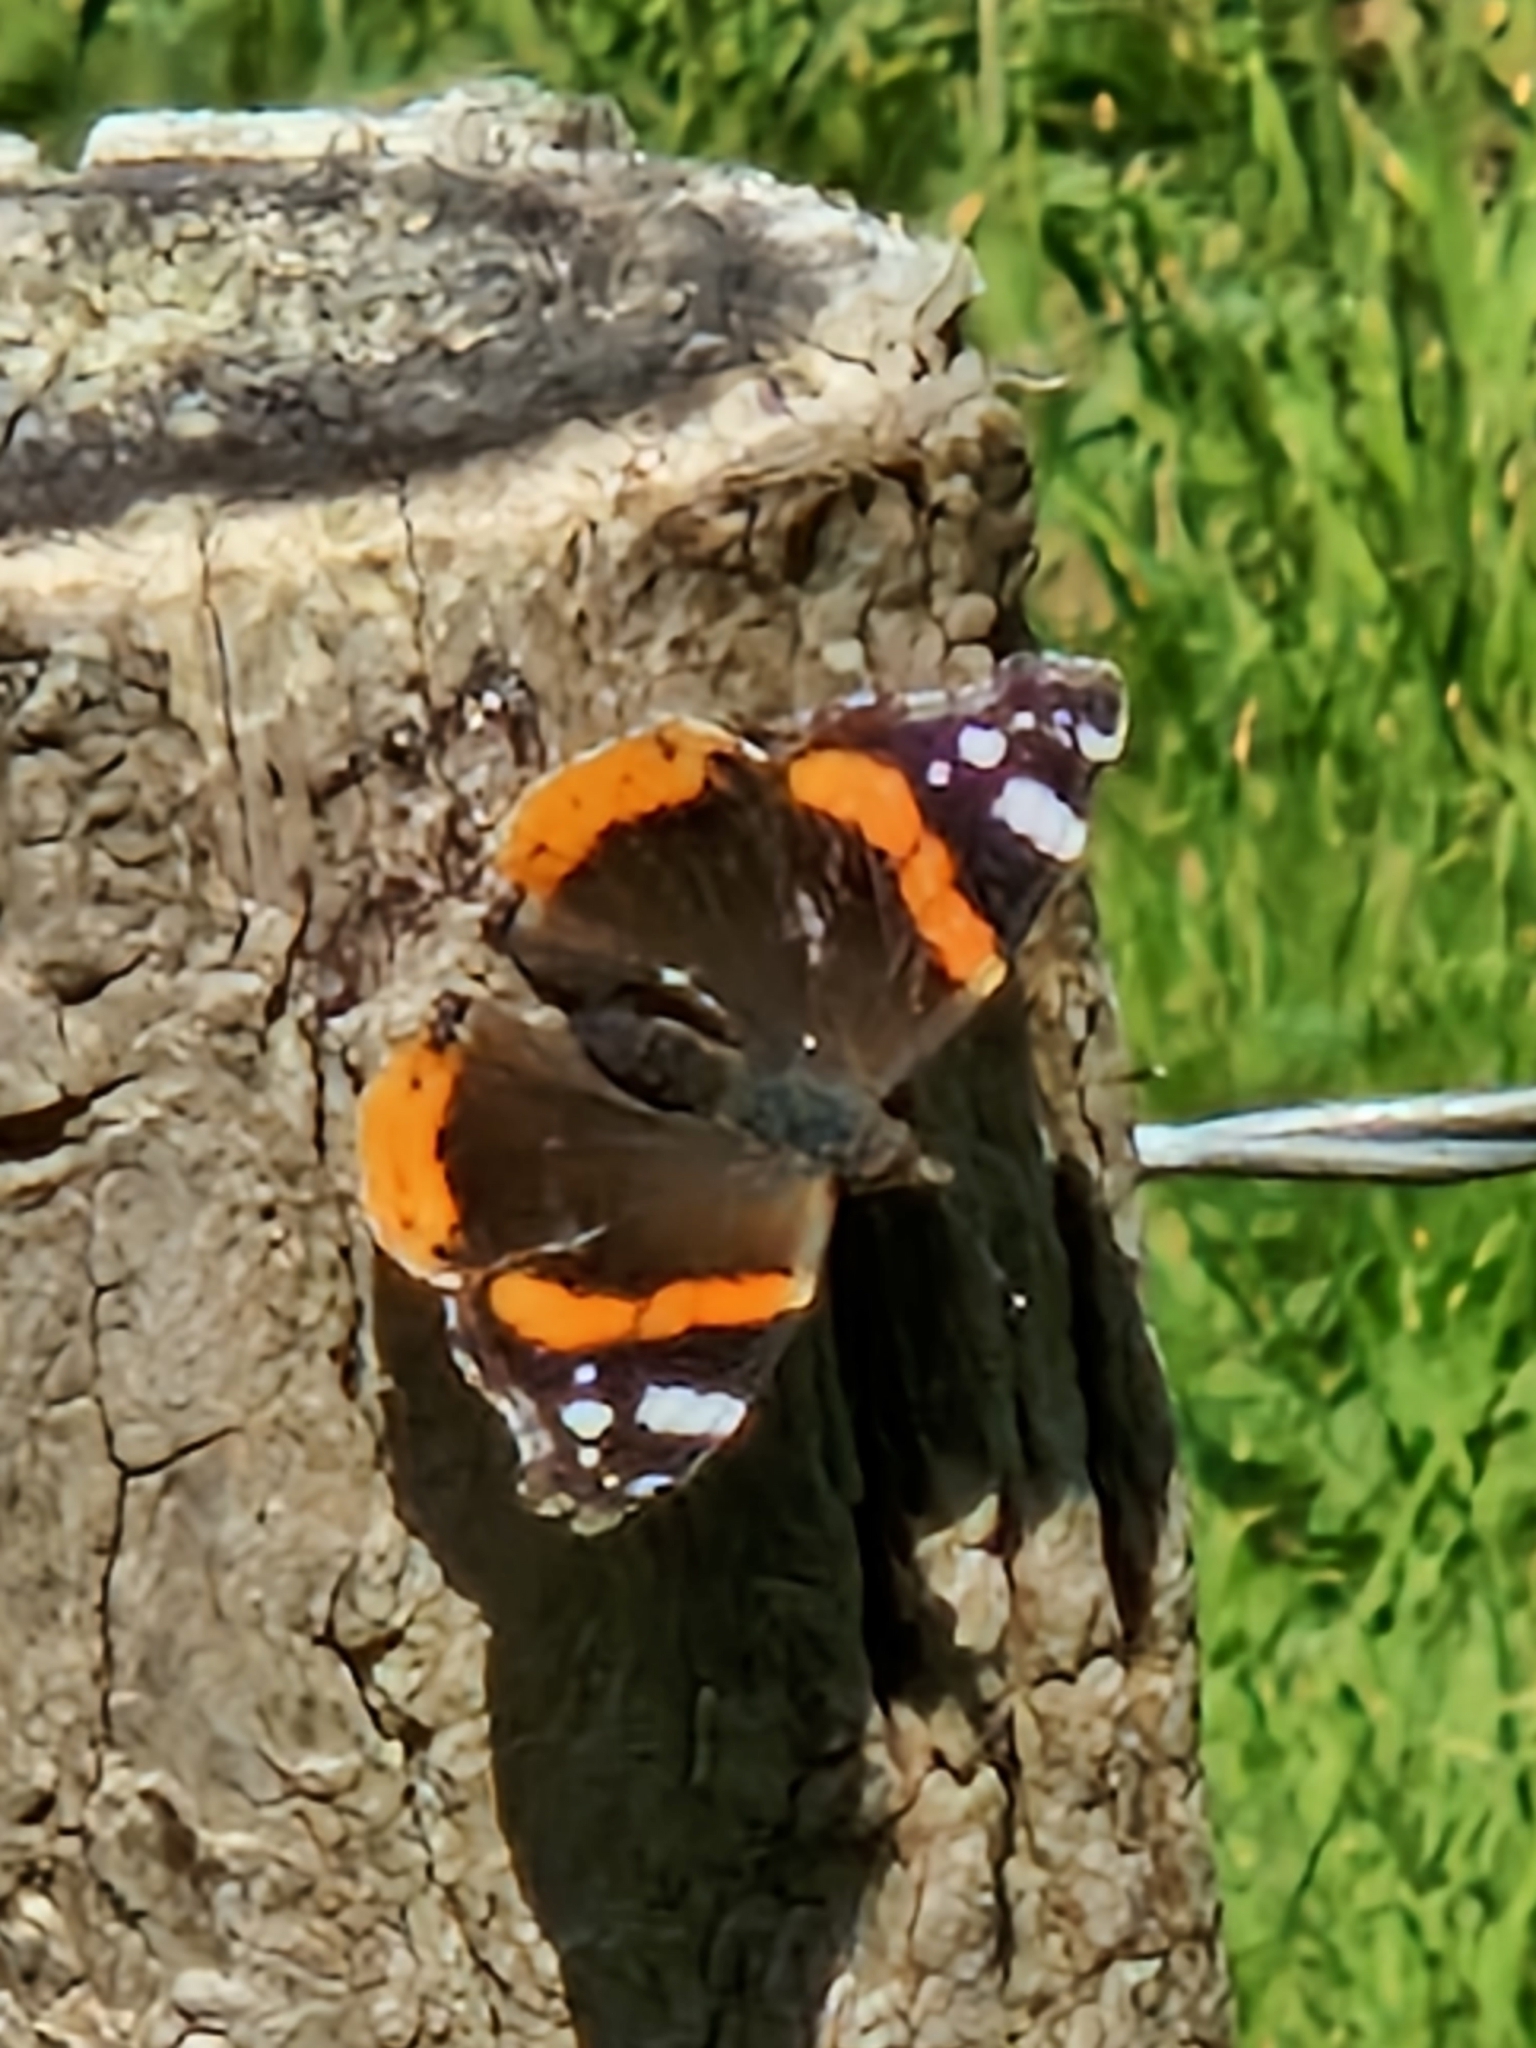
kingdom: Animalia
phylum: Arthropoda
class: Insecta
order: Lepidoptera
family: Nymphalidae
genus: Vanessa
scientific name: Vanessa atalanta
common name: Red admiral
